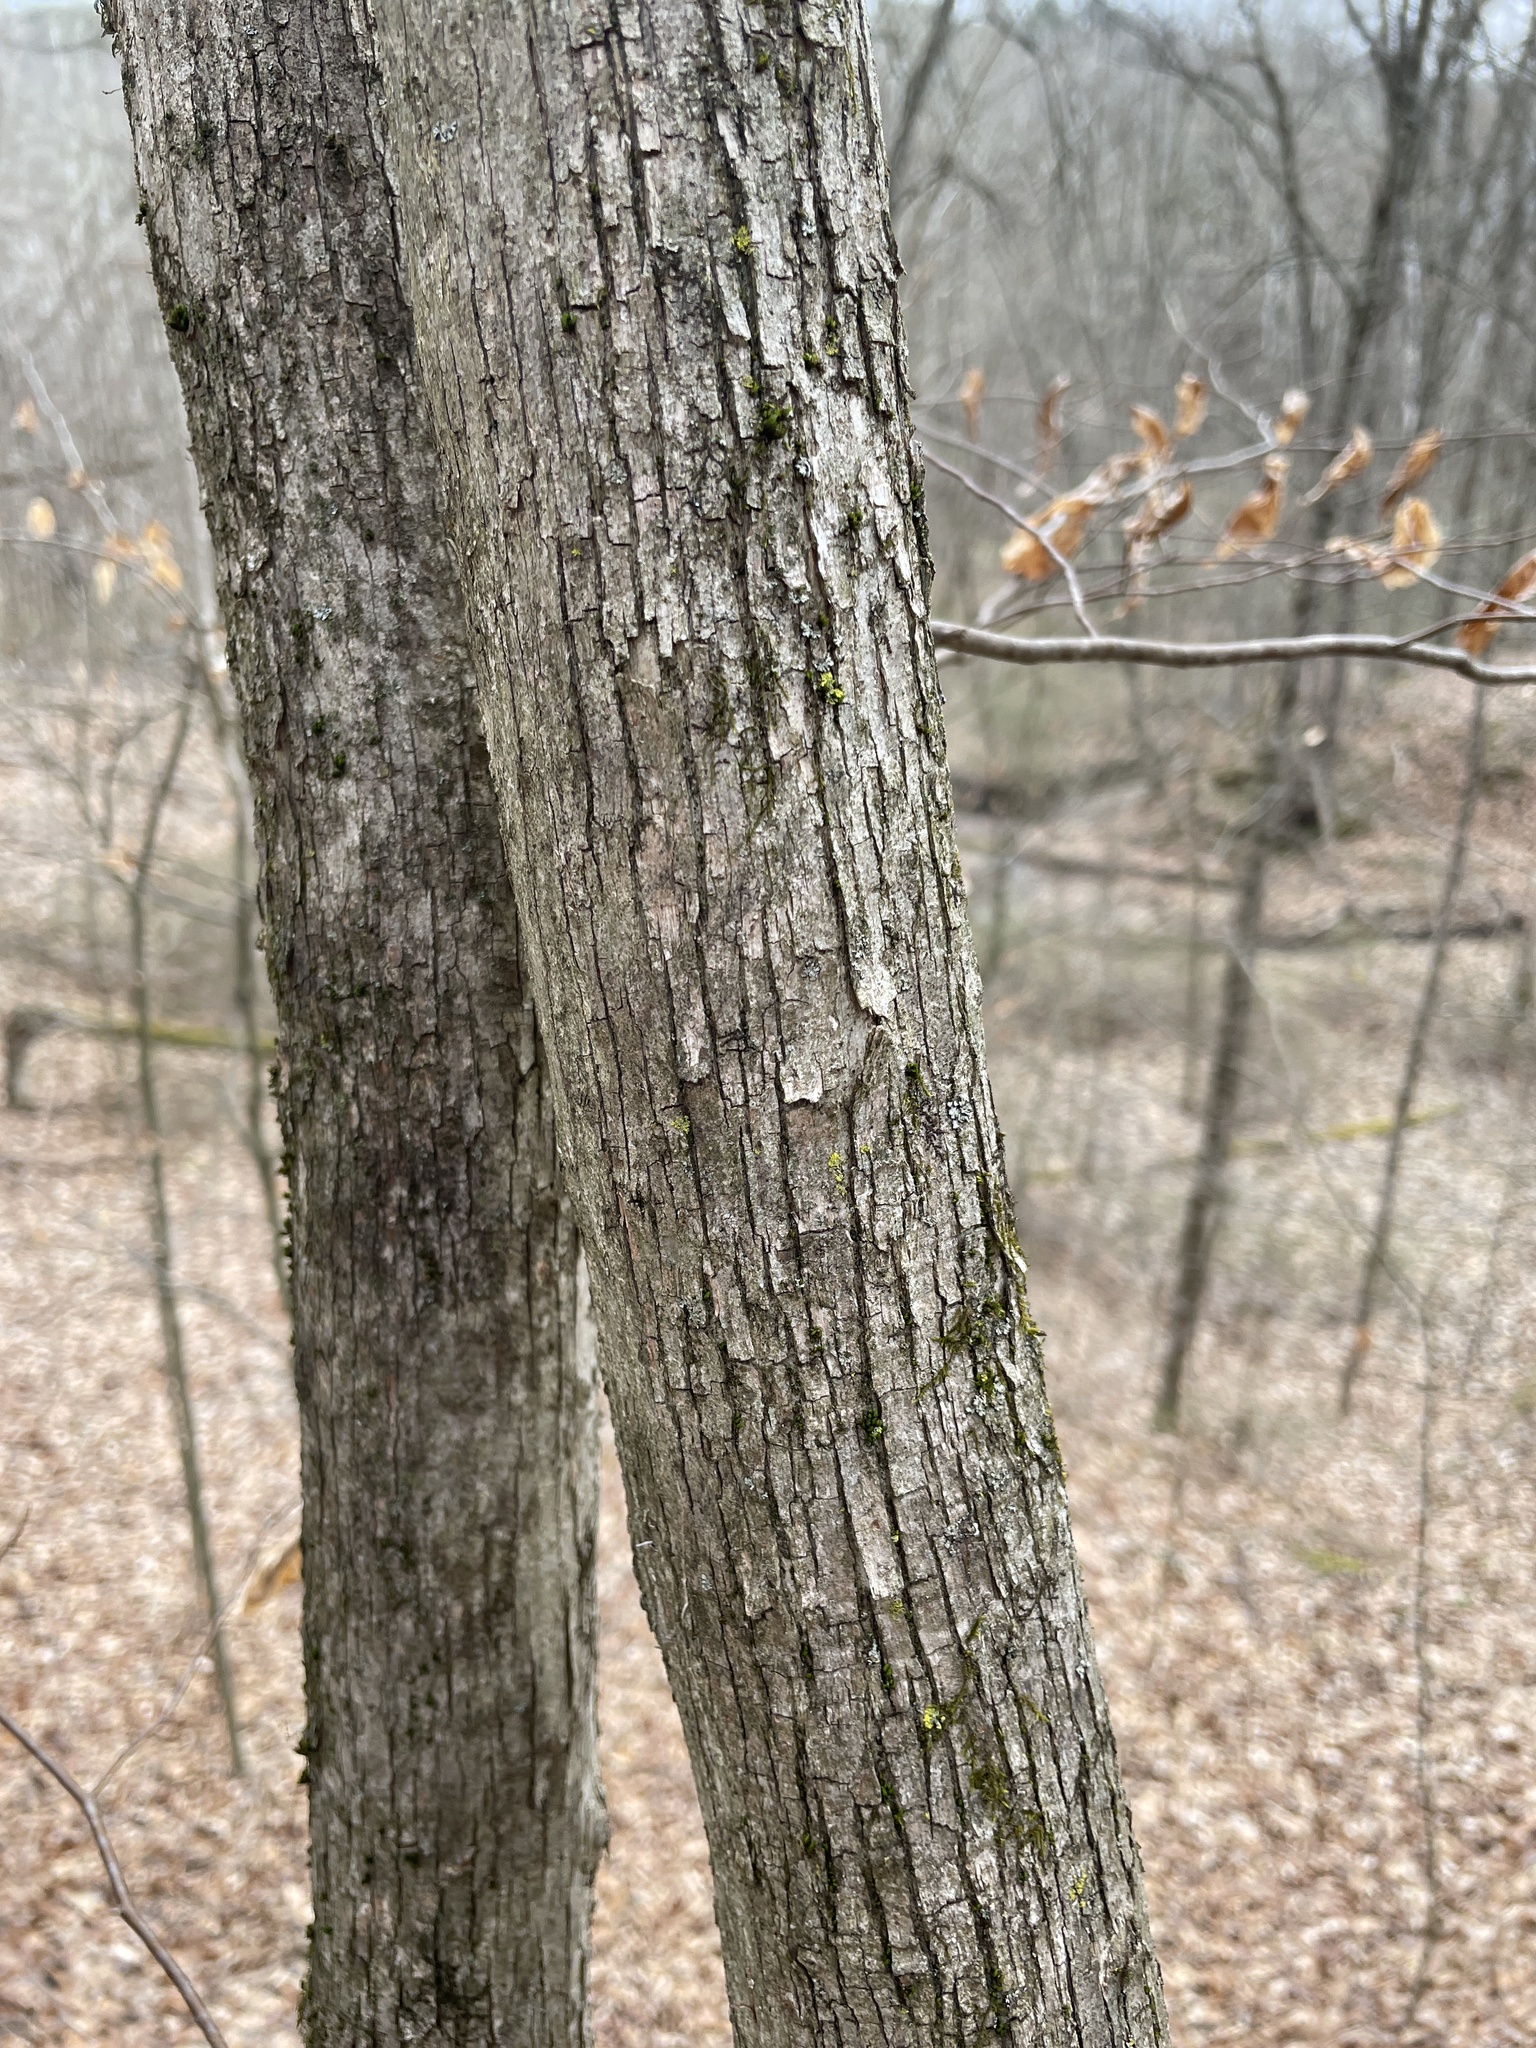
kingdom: Plantae
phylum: Tracheophyta
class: Magnoliopsida
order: Fagales
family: Betulaceae
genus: Ostrya
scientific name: Ostrya virginiana
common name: Ironwood
